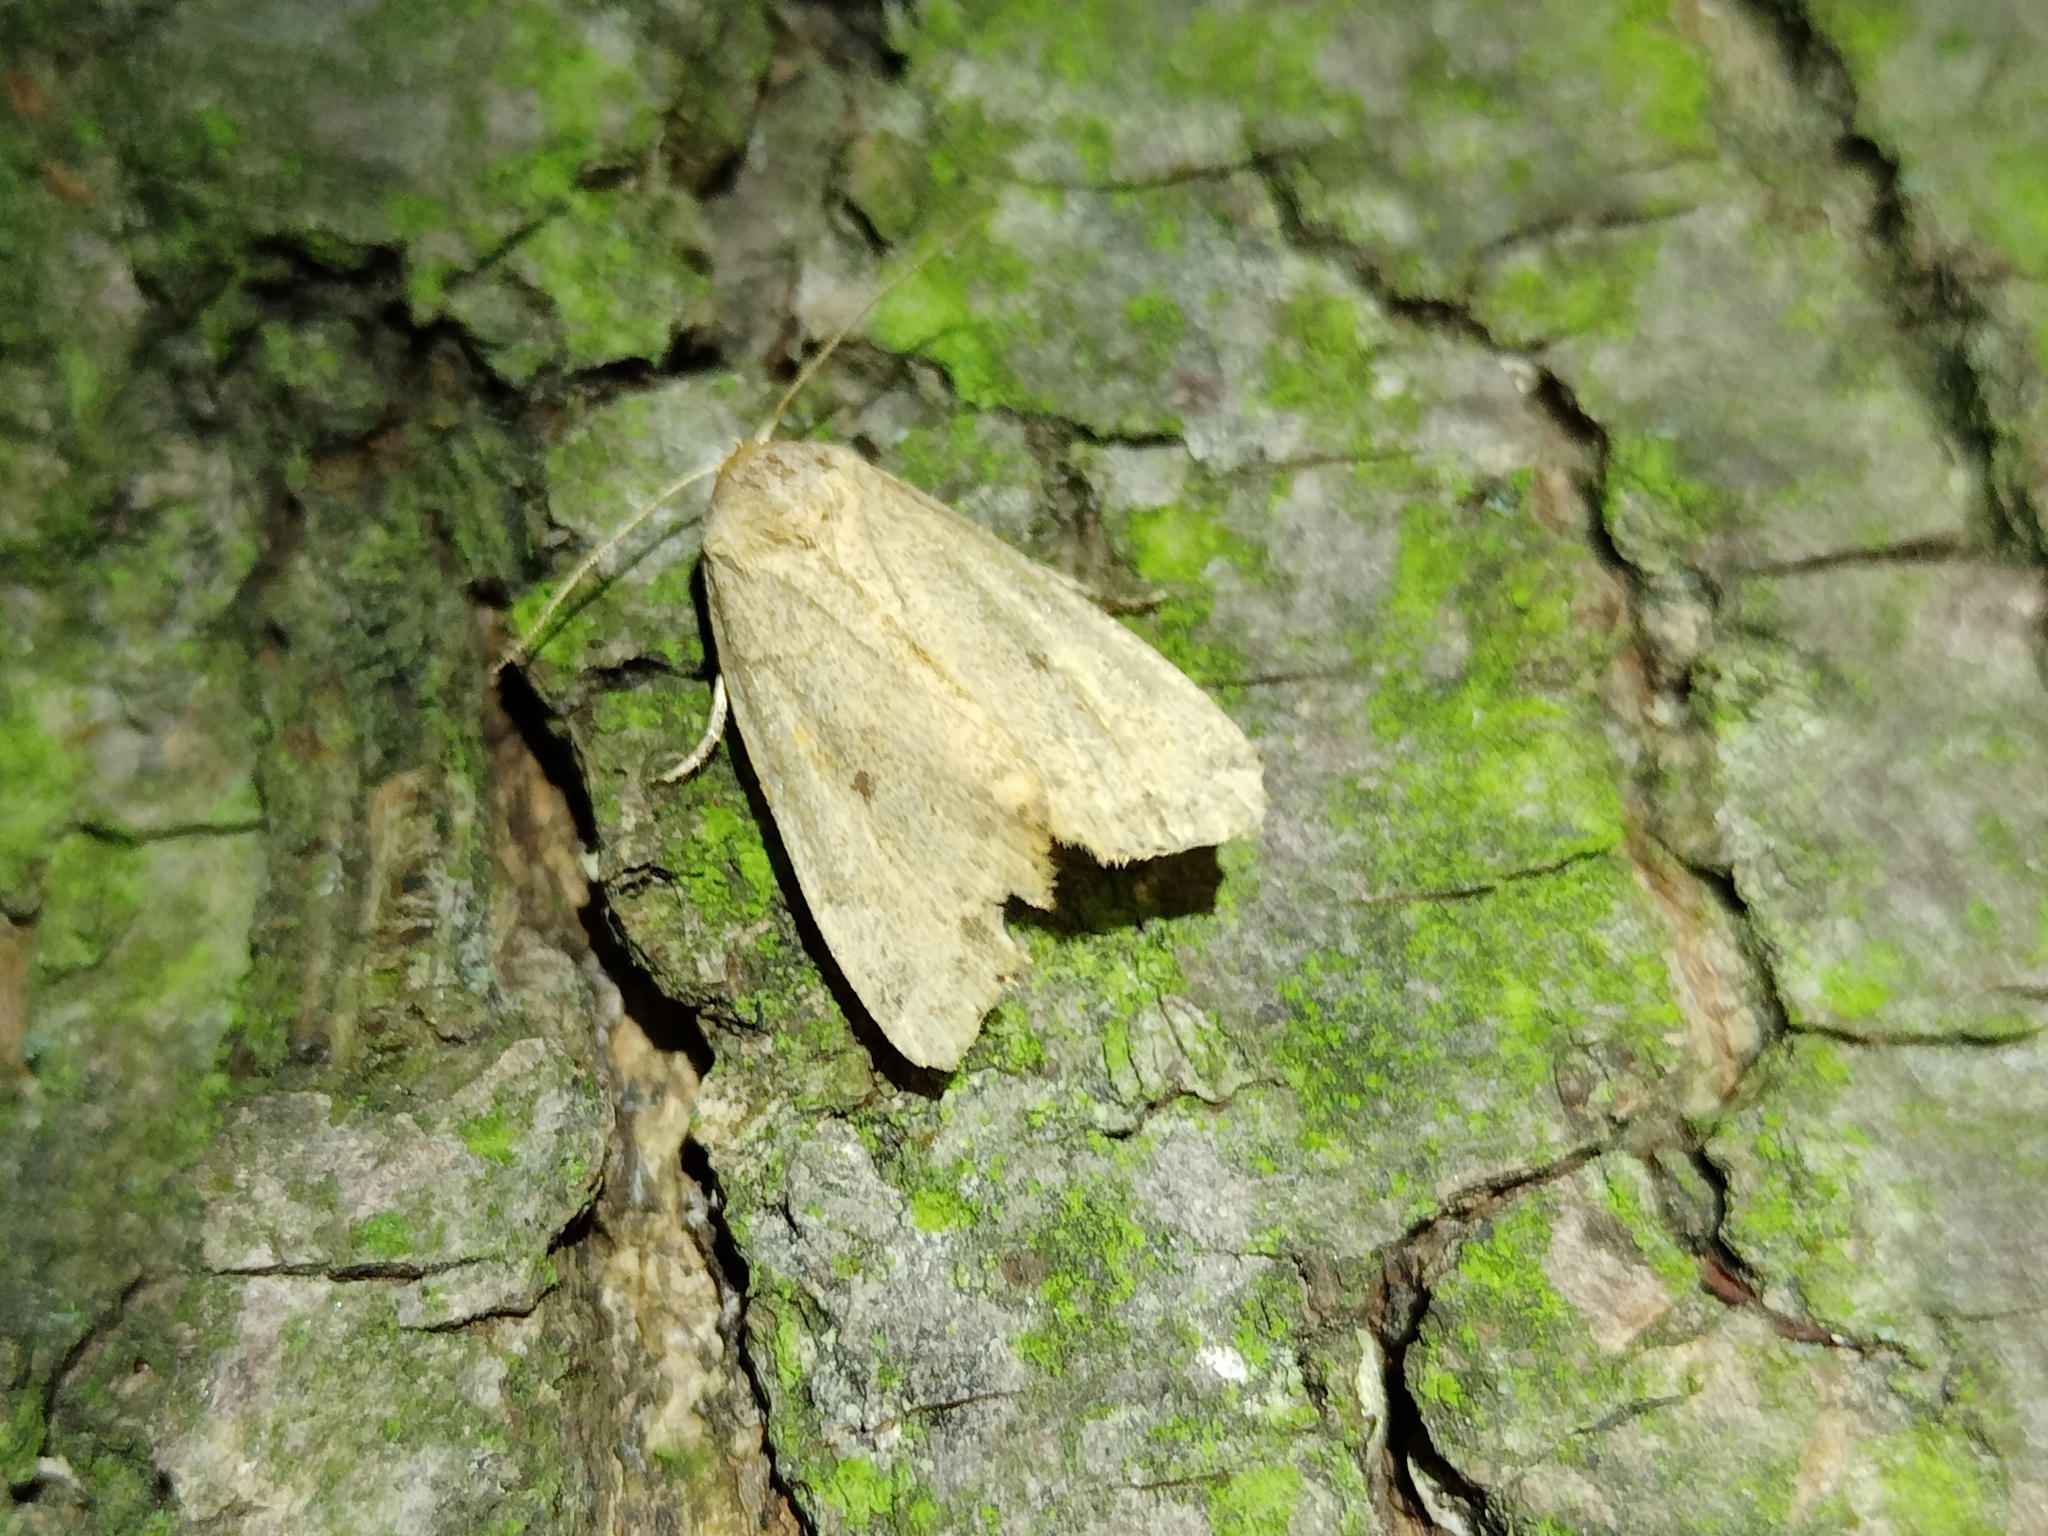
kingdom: Animalia
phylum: Arthropoda
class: Insecta
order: Lepidoptera
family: Noctuidae
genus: Cosmia
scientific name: Cosmia trapezina
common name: Dun-bar
